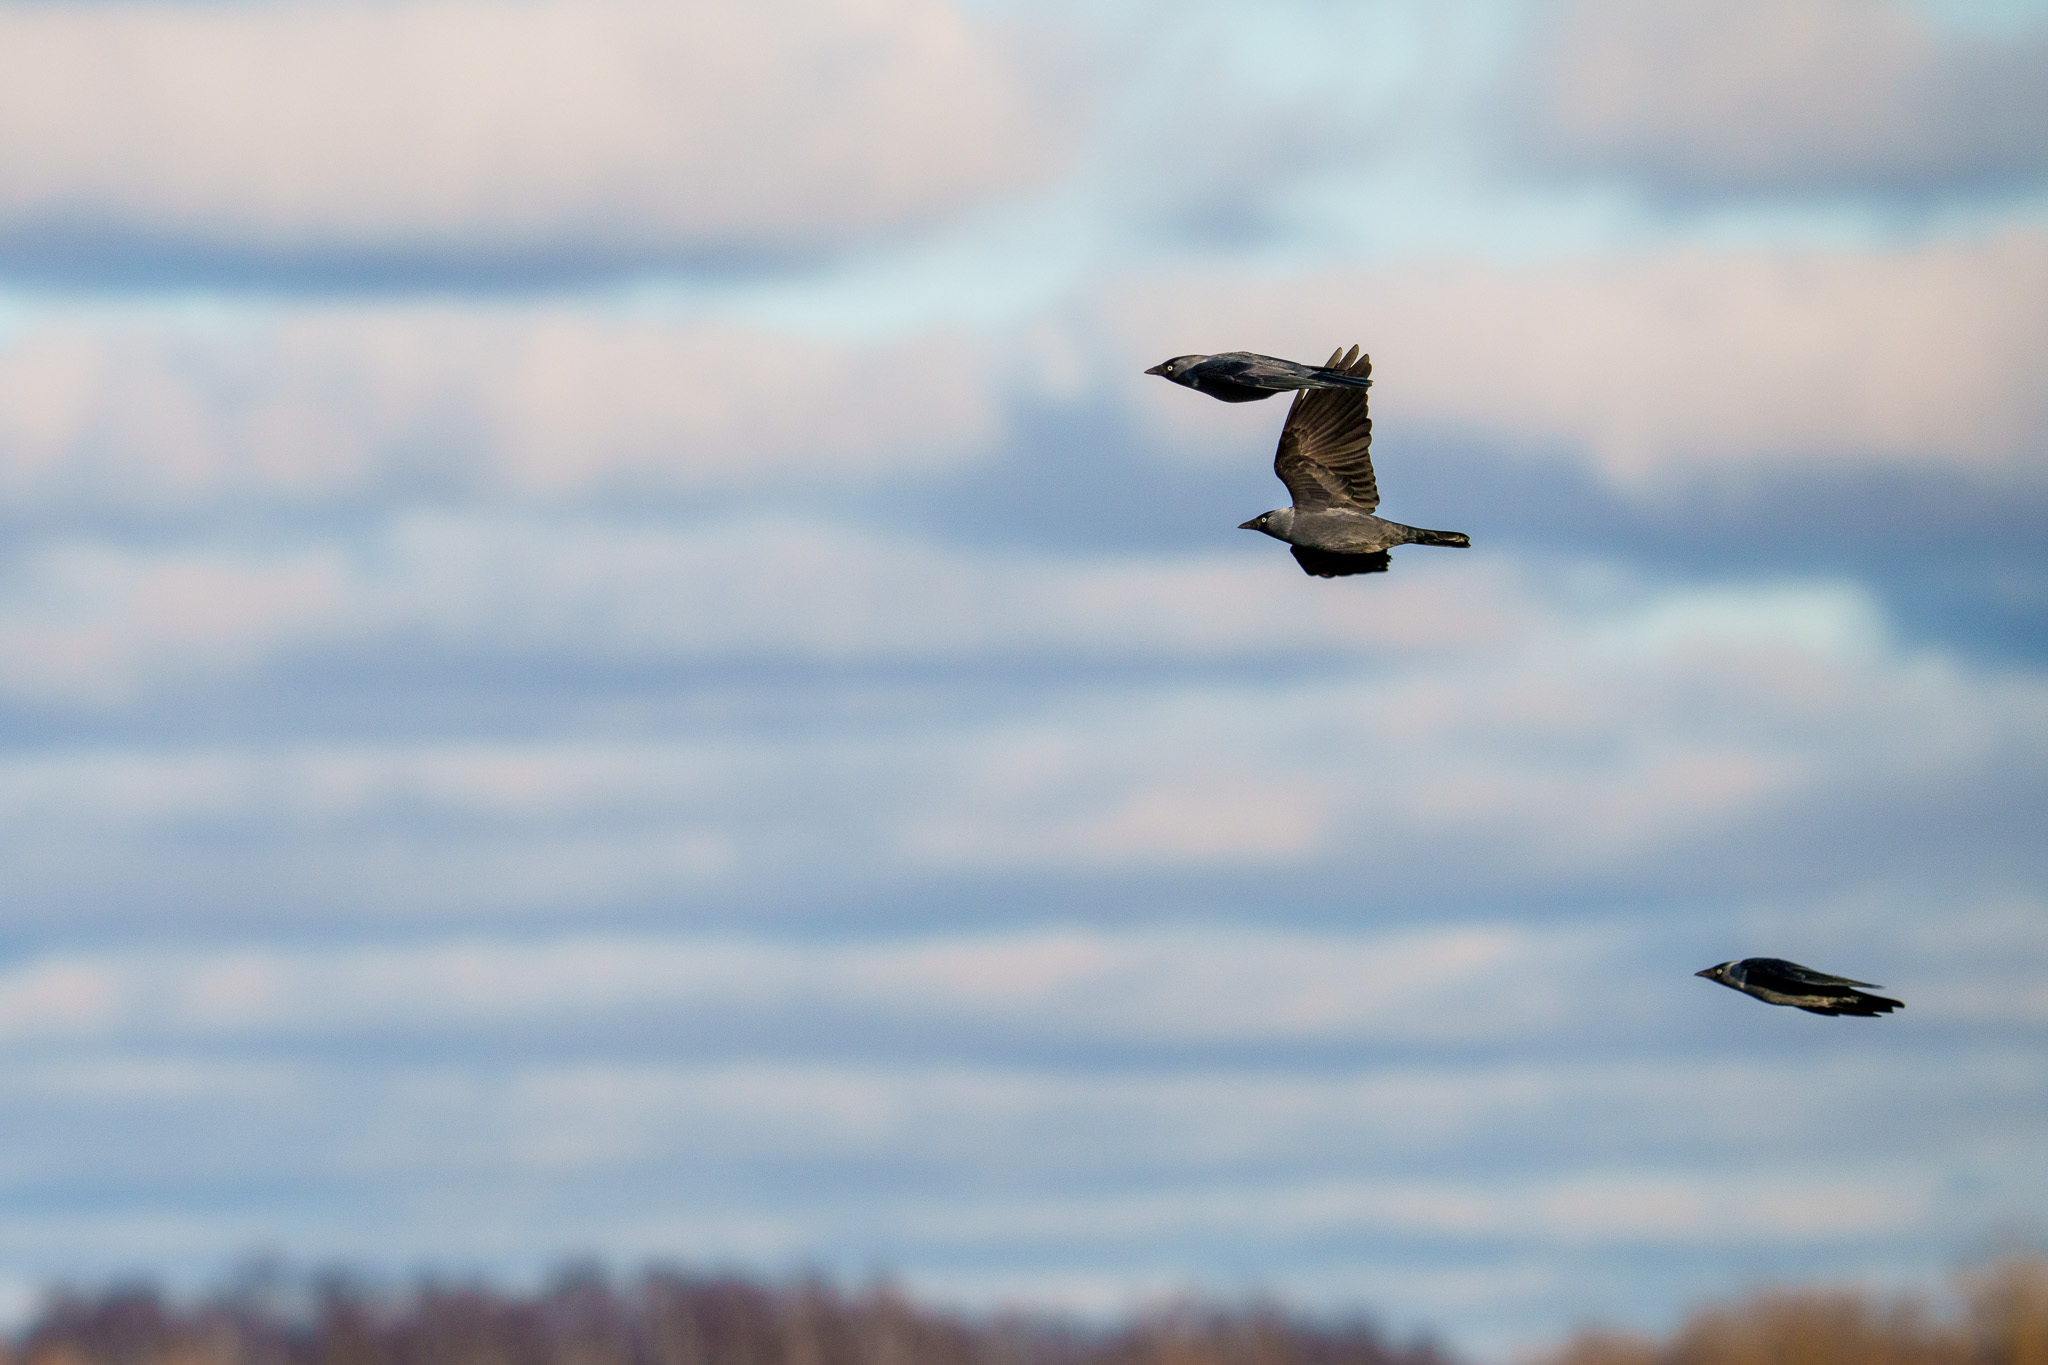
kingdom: Animalia
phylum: Chordata
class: Aves
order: Passeriformes
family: Corvidae
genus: Coloeus
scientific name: Coloeus monedula
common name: Western jackdaw
